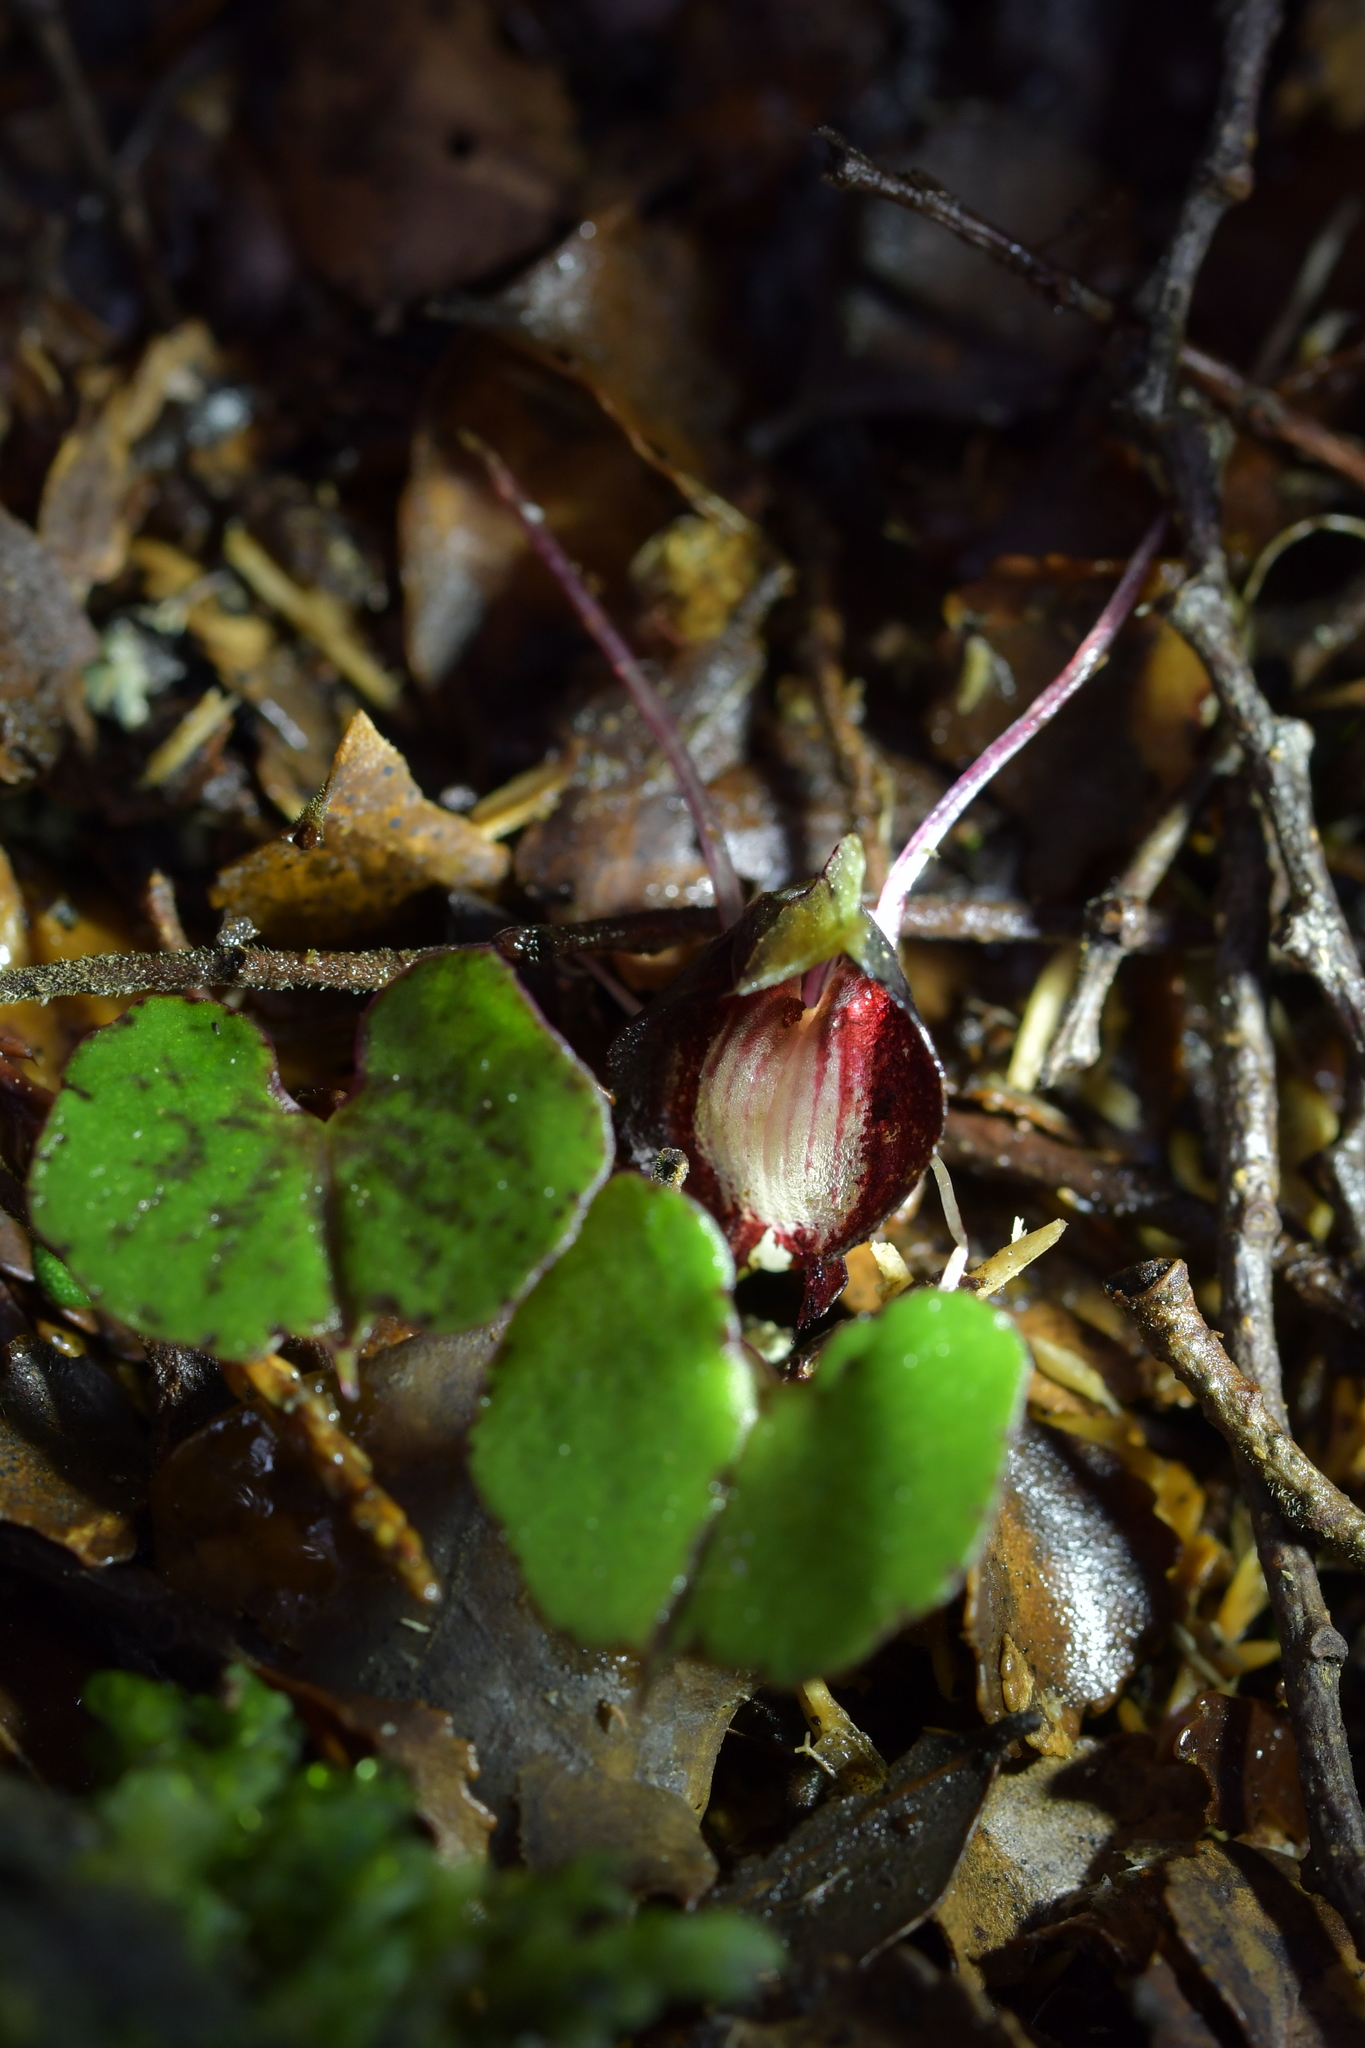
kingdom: Plantae
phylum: Tracheophyta
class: Liliopsida
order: Asparagales
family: Orchidaceae
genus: Corybas
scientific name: Corybas sanctigeorgianus
